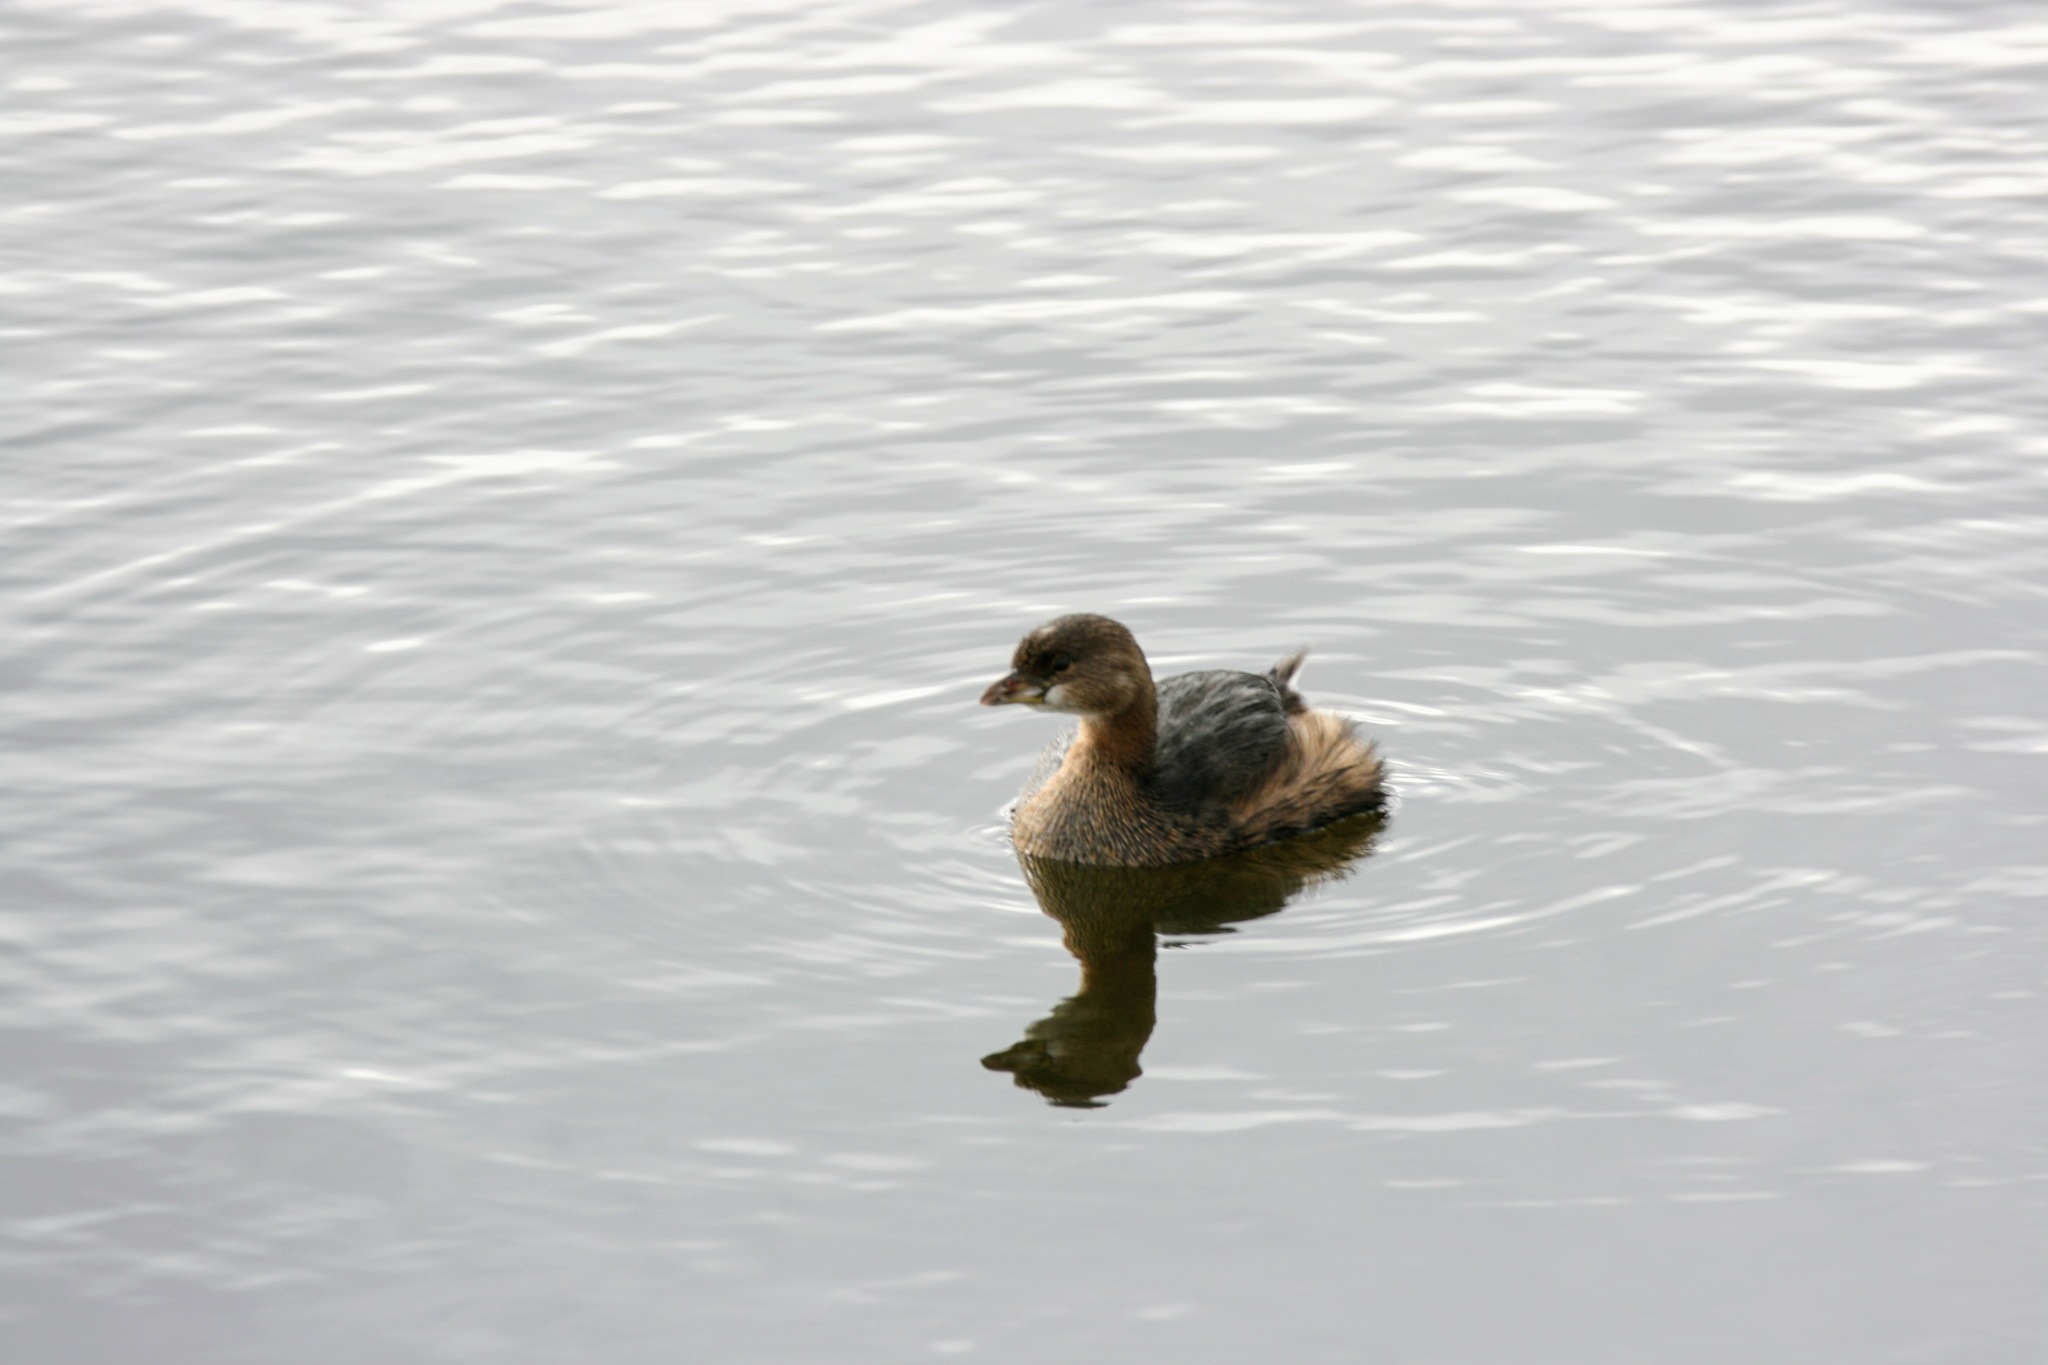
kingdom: Animalia
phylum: Chordata
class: Aves
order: Podicipediformes
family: Podicipedidae
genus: Podilymbus
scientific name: Podilymbus podiceps
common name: Pied-billed grebe
